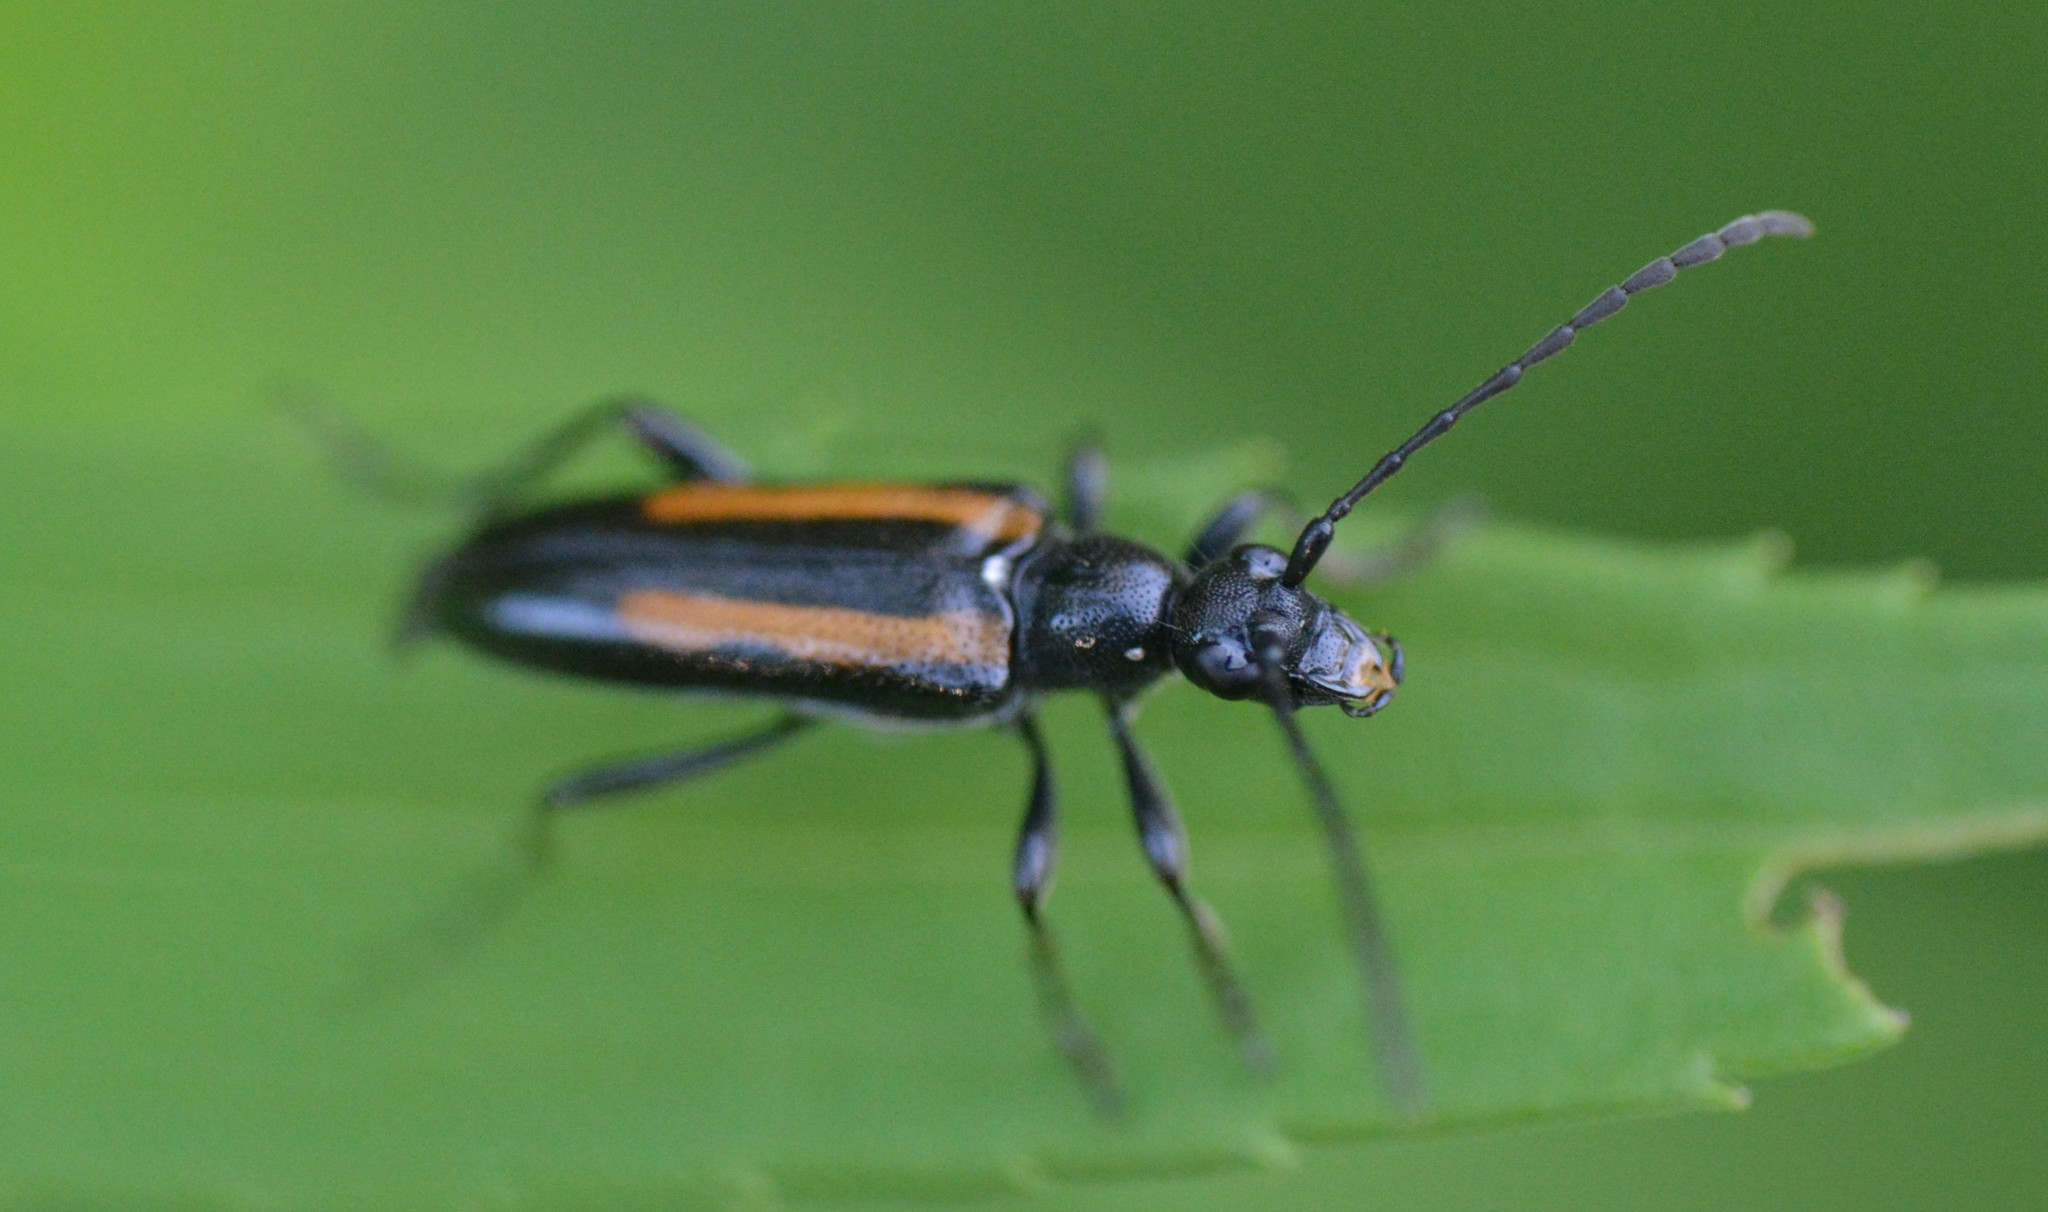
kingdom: Animalia
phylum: Arthropoda
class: Insecta
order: Coleoptera
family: Cerambycidae
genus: Strangalepta
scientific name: Strangalepta abbreviata
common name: Strangalepta flower longhorn beetle
